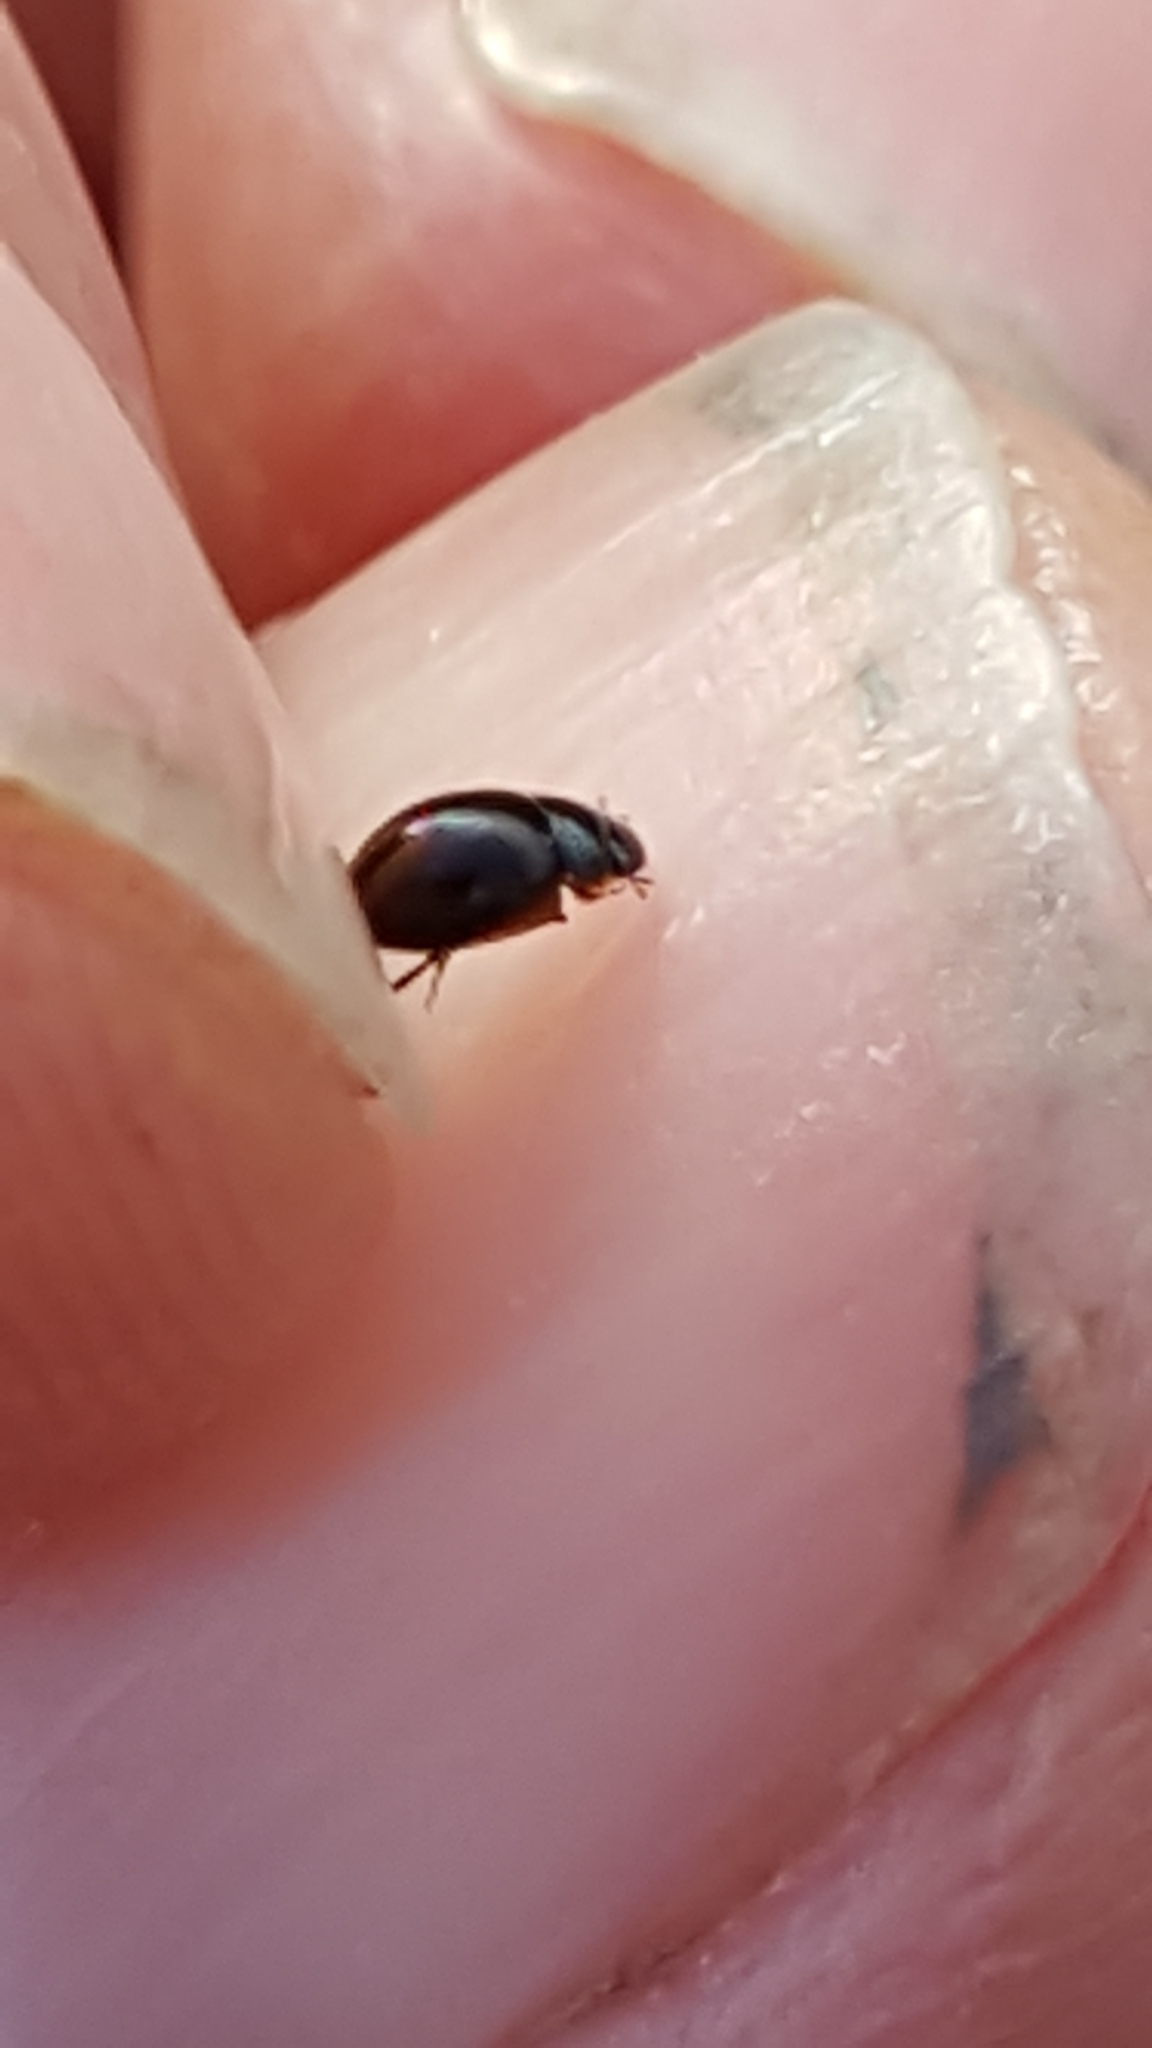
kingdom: Animalia
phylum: Arthropoda
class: Insecta
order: Coleoptera
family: Hydrophilidae
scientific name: Hydrophilidae
